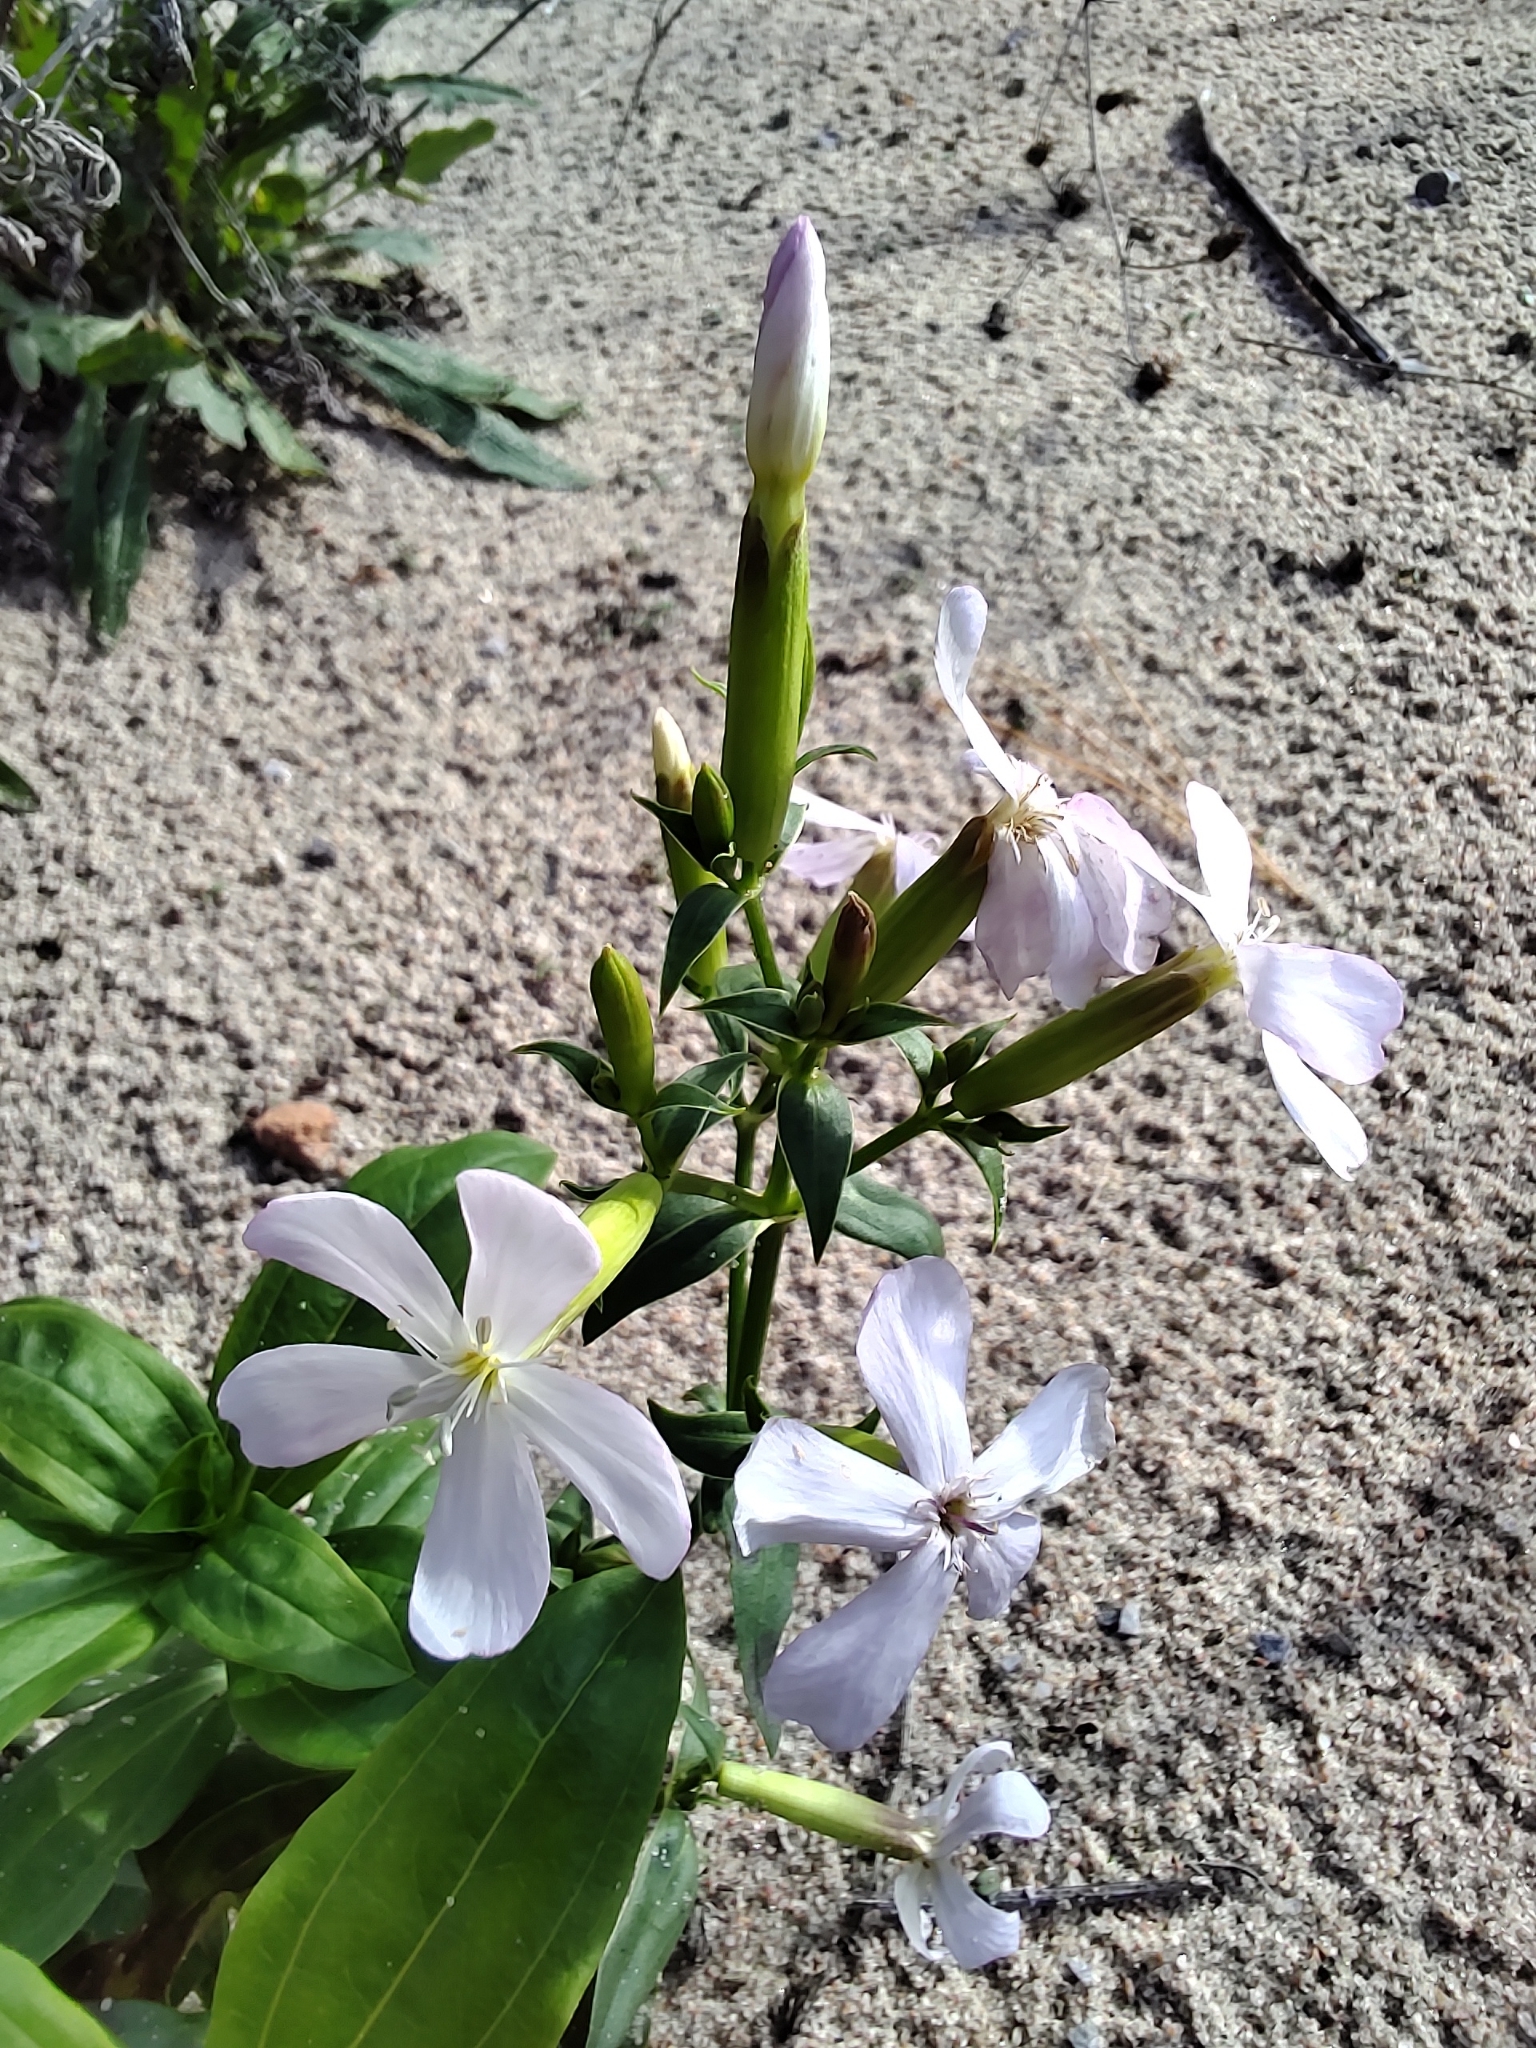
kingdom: Plantae
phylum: Tracheophyta
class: Magnoliopsida
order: Caryophyllales
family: Caryophyllaceae
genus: Saponaria
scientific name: Saponaria officinalis
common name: Soapwort
